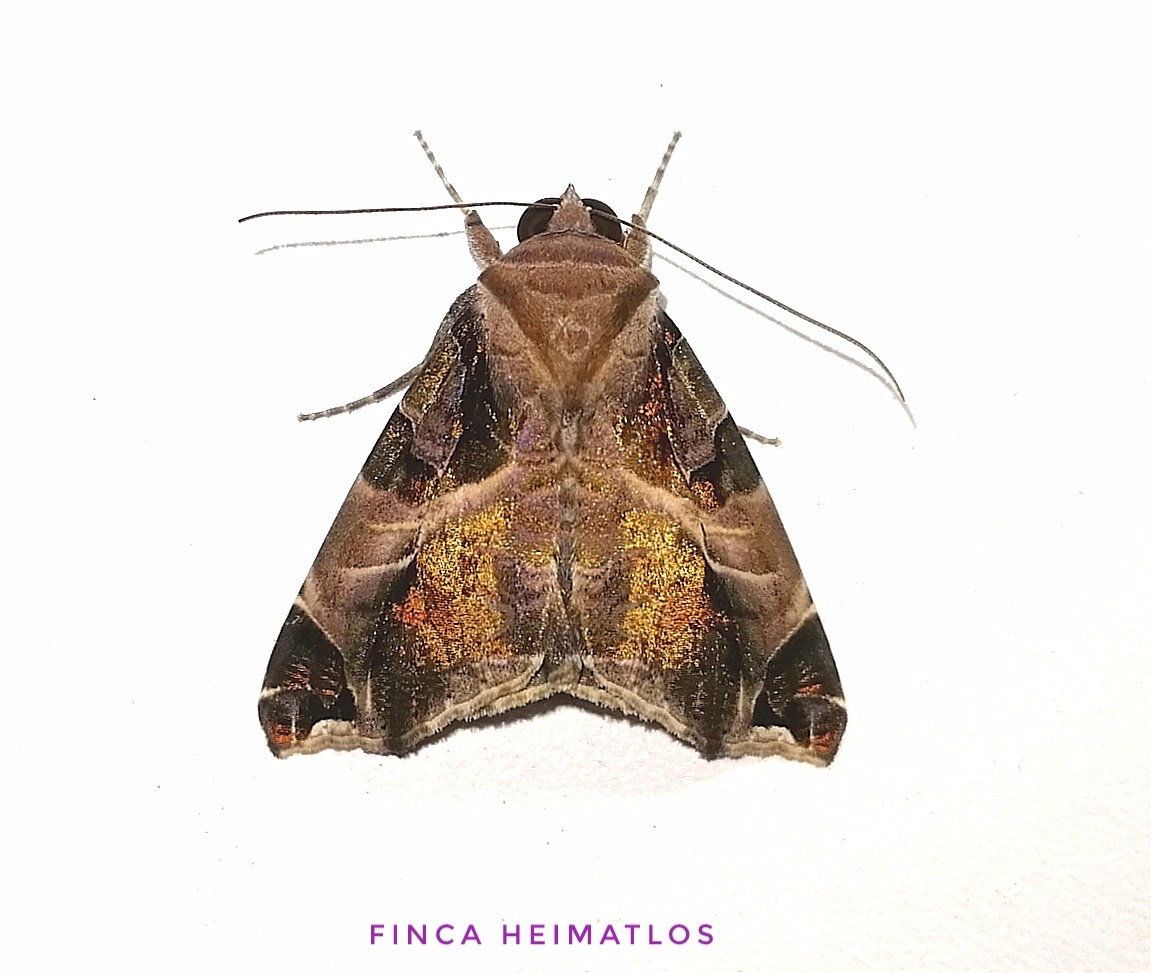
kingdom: Animalia
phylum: Arthropoda
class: Insecta
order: Lepidoptera
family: Erebidae
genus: Calyptis
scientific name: Calyptis idonea
